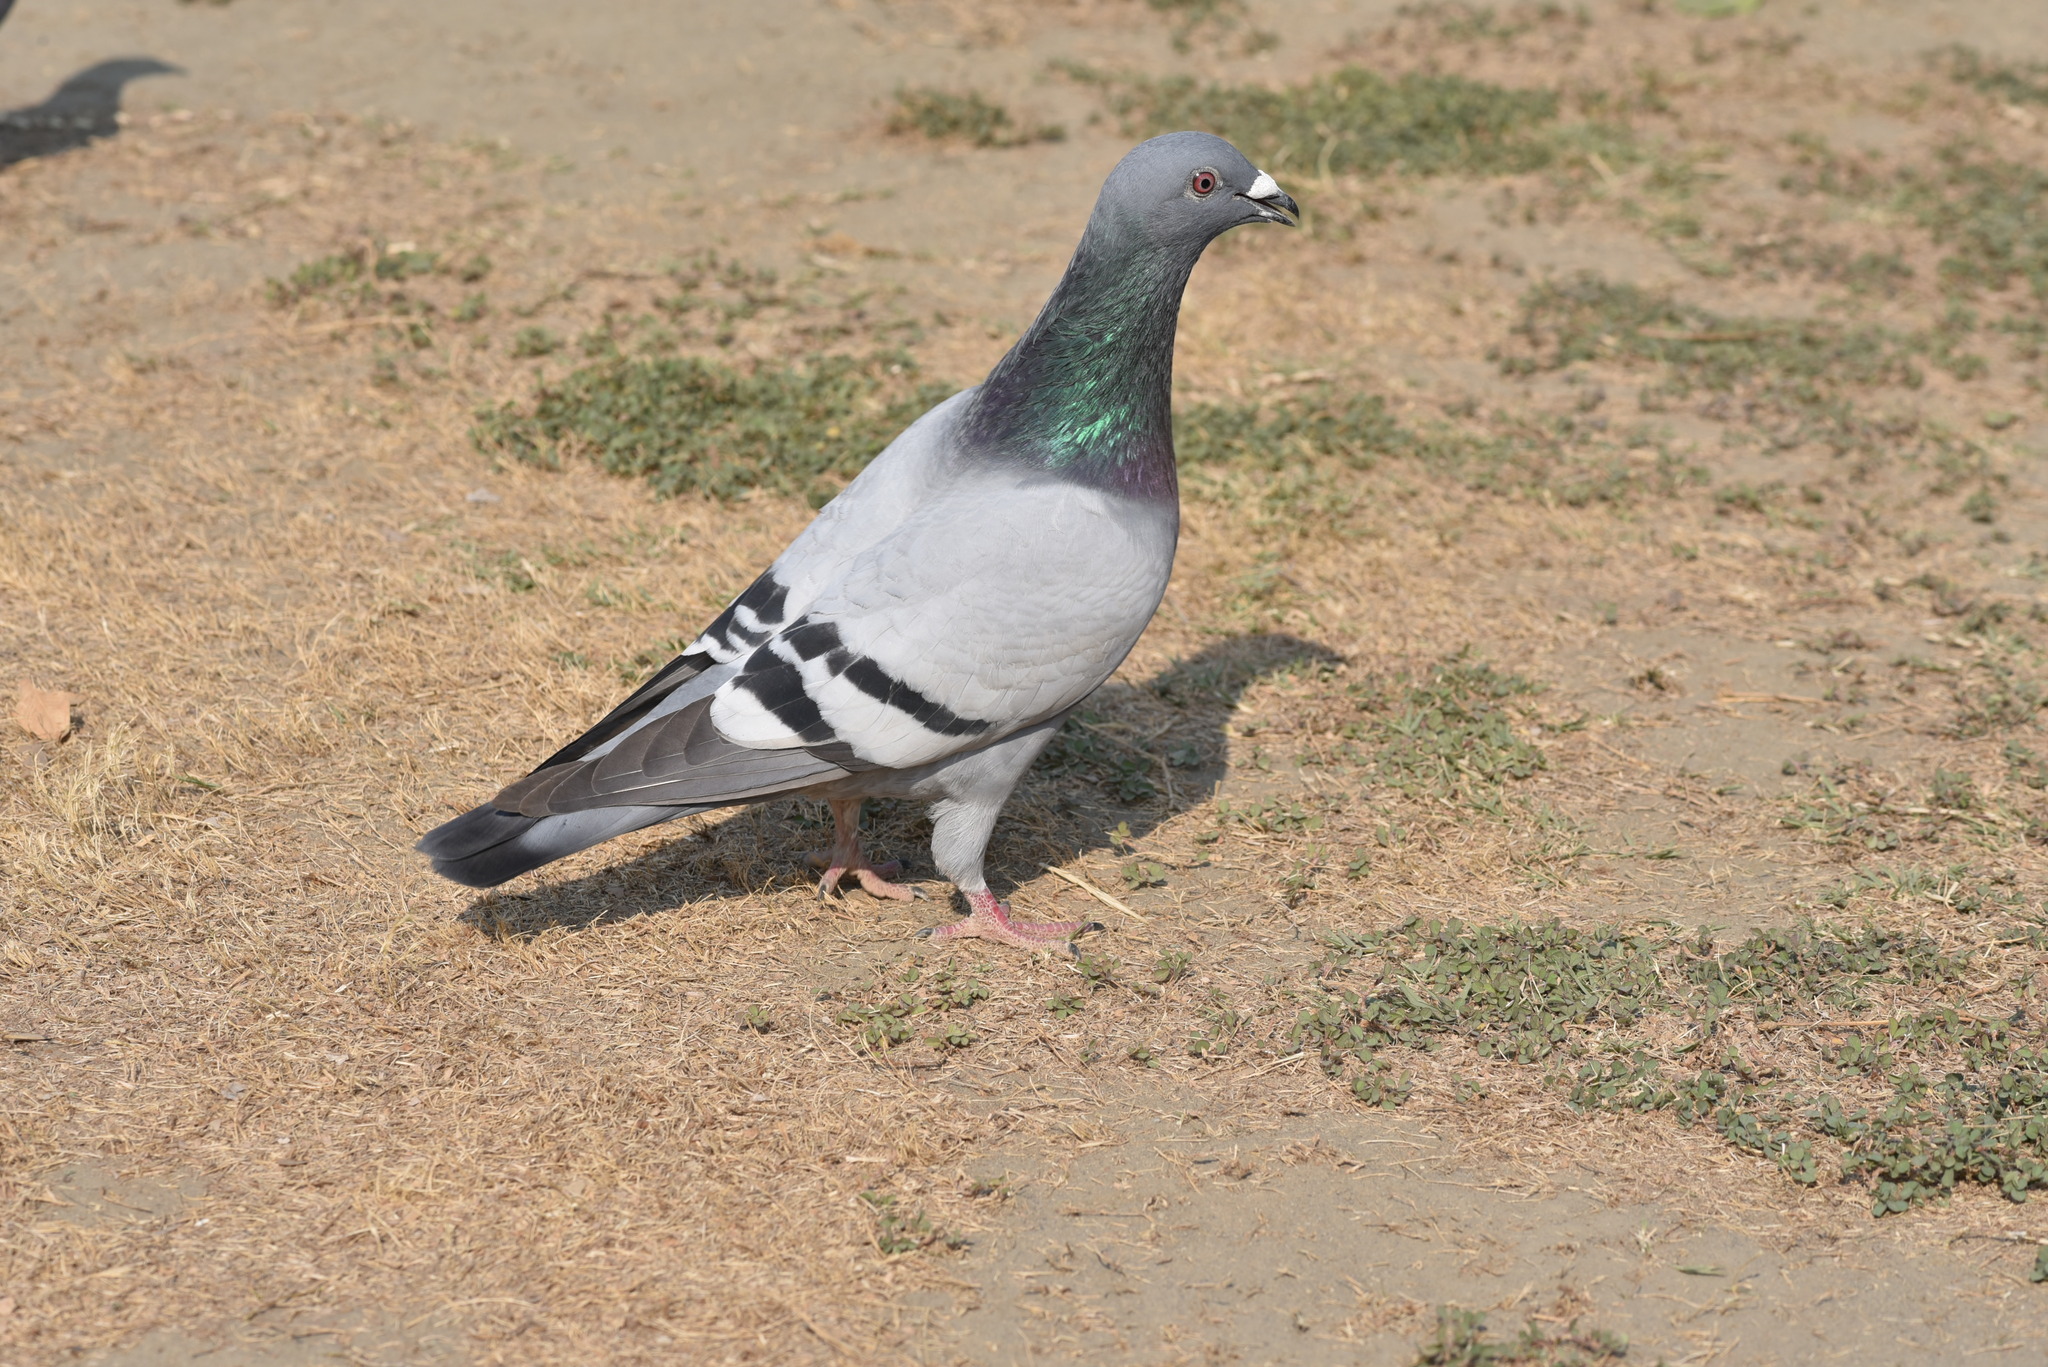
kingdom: Animalia
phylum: Chordata
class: Aves
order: Columbiformes
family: Columbidae
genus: Columba
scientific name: Columba livia
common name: Rock pigeon
